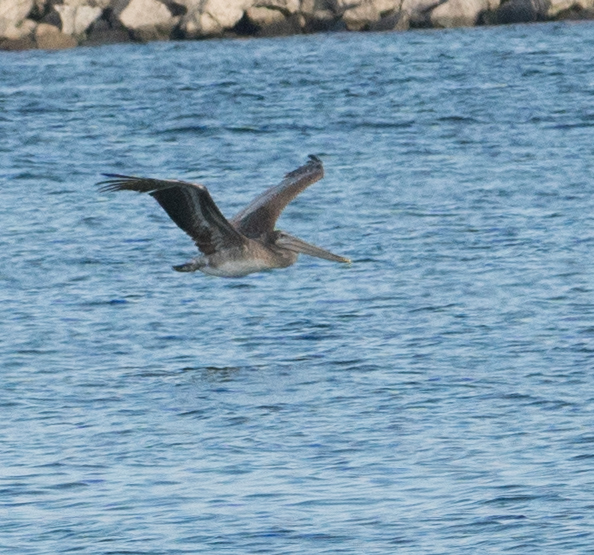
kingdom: Animalia
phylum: Chordata
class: Aves
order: Pelecaniformes
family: Pelecanidae
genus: Pelecanus
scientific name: Pelecanus occidentalis
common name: Brown pelican
